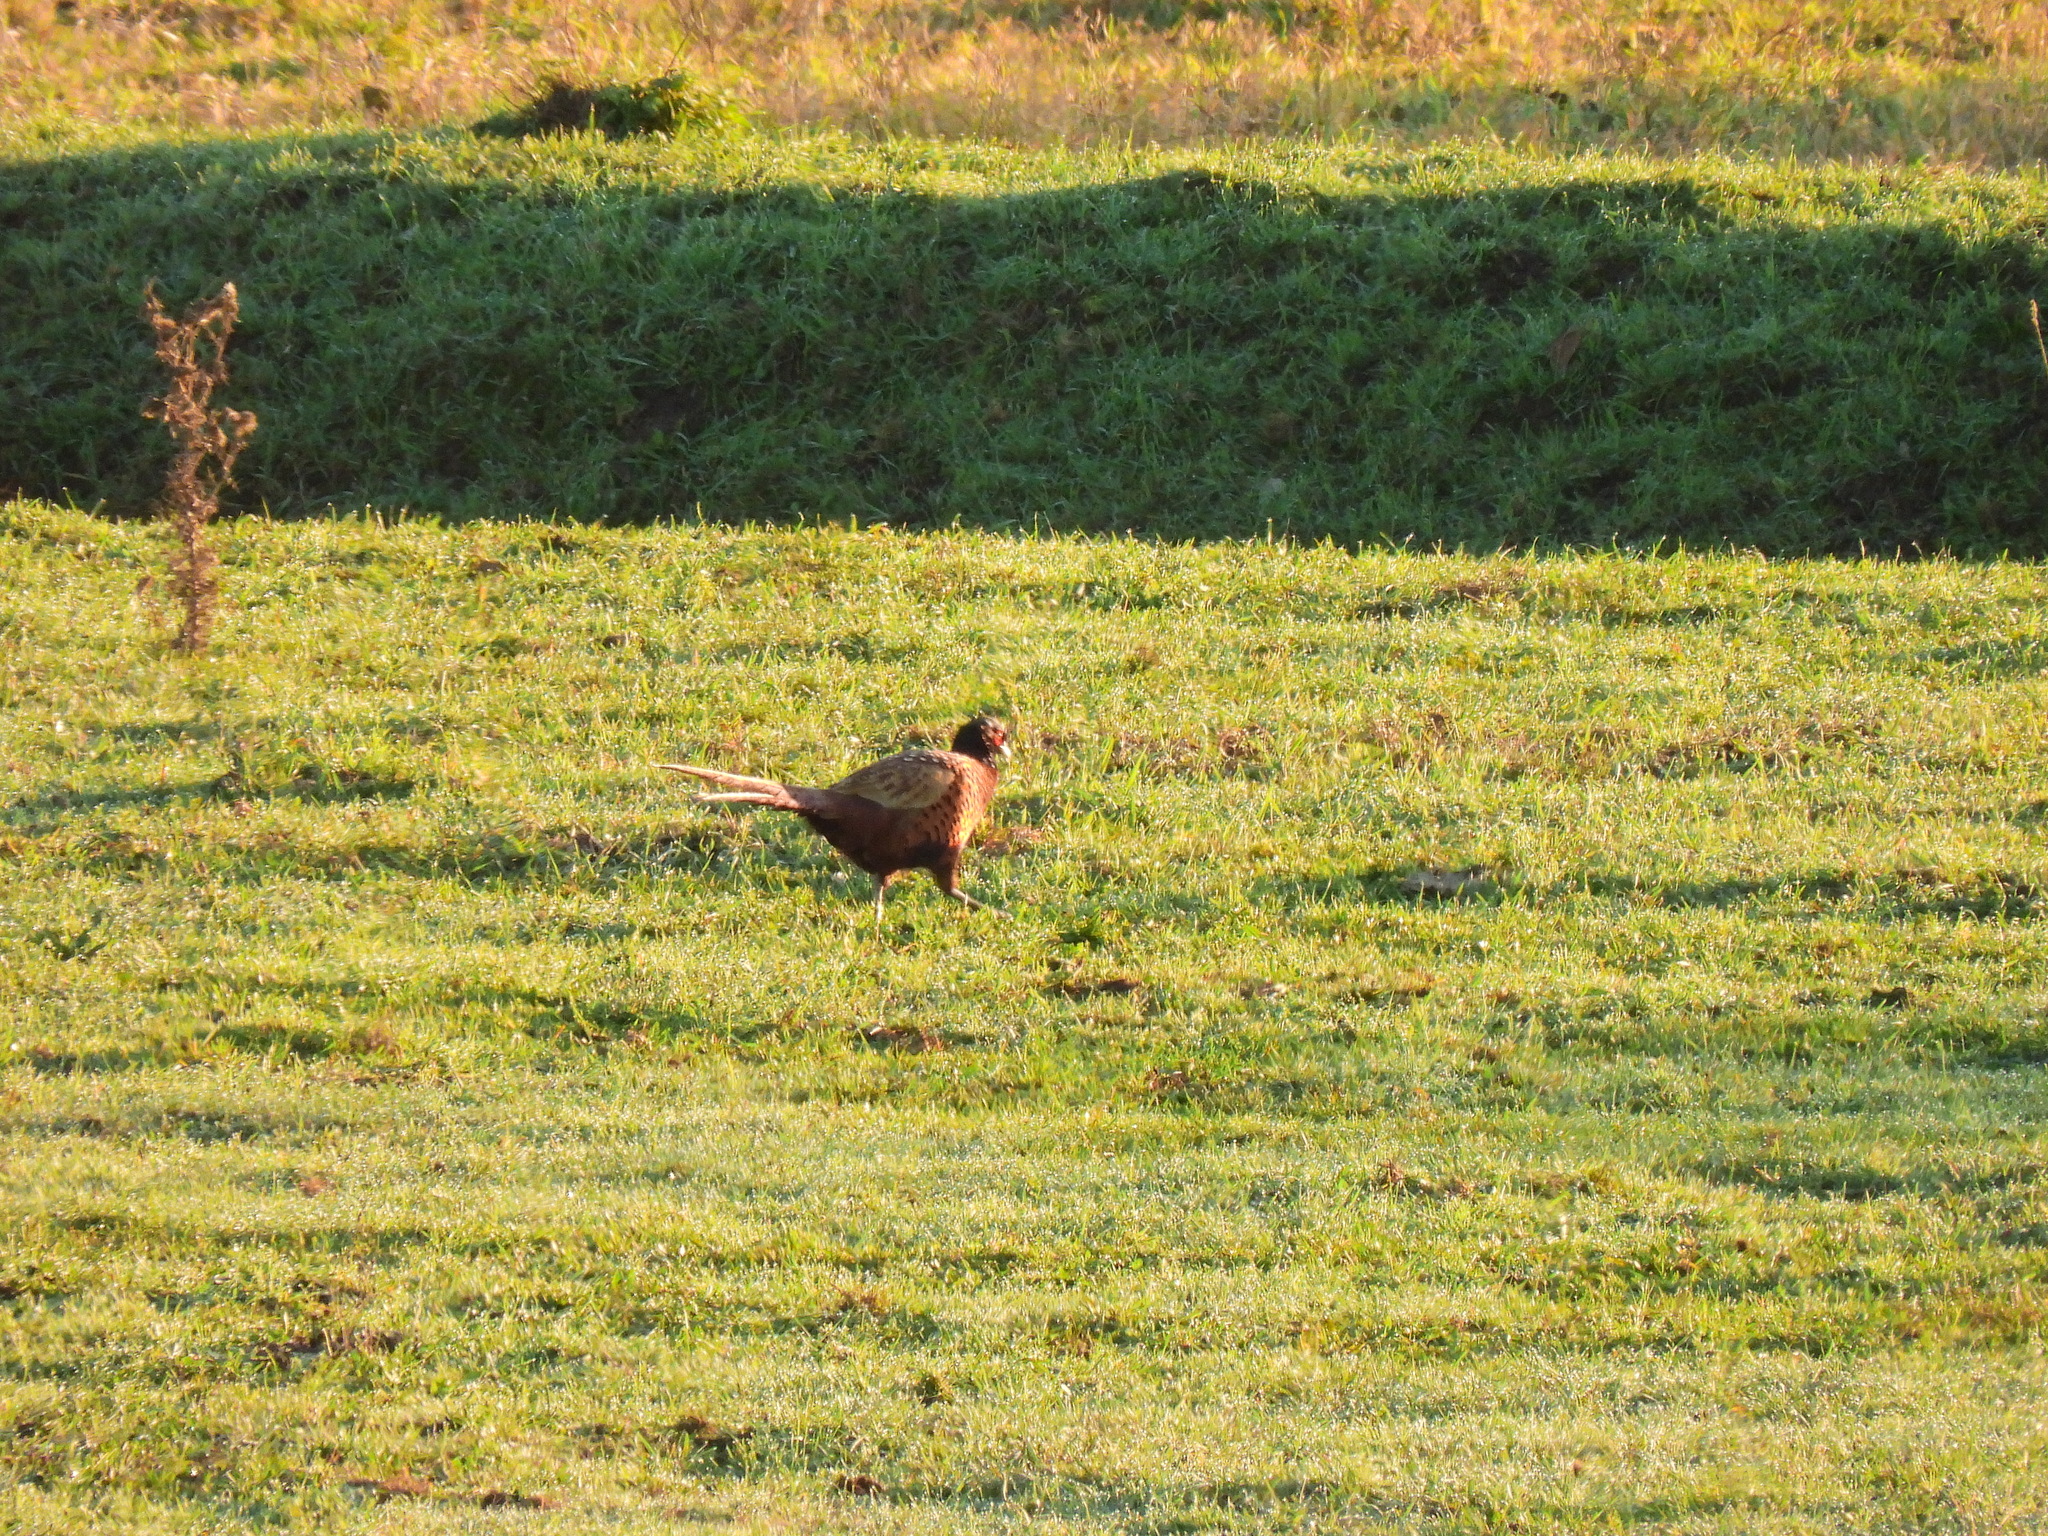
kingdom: Animalia
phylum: Chordata
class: Aves
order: Galliformes
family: Phasianidae
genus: Phasianus
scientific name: Phasianus colchicus
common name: Common pheasant
